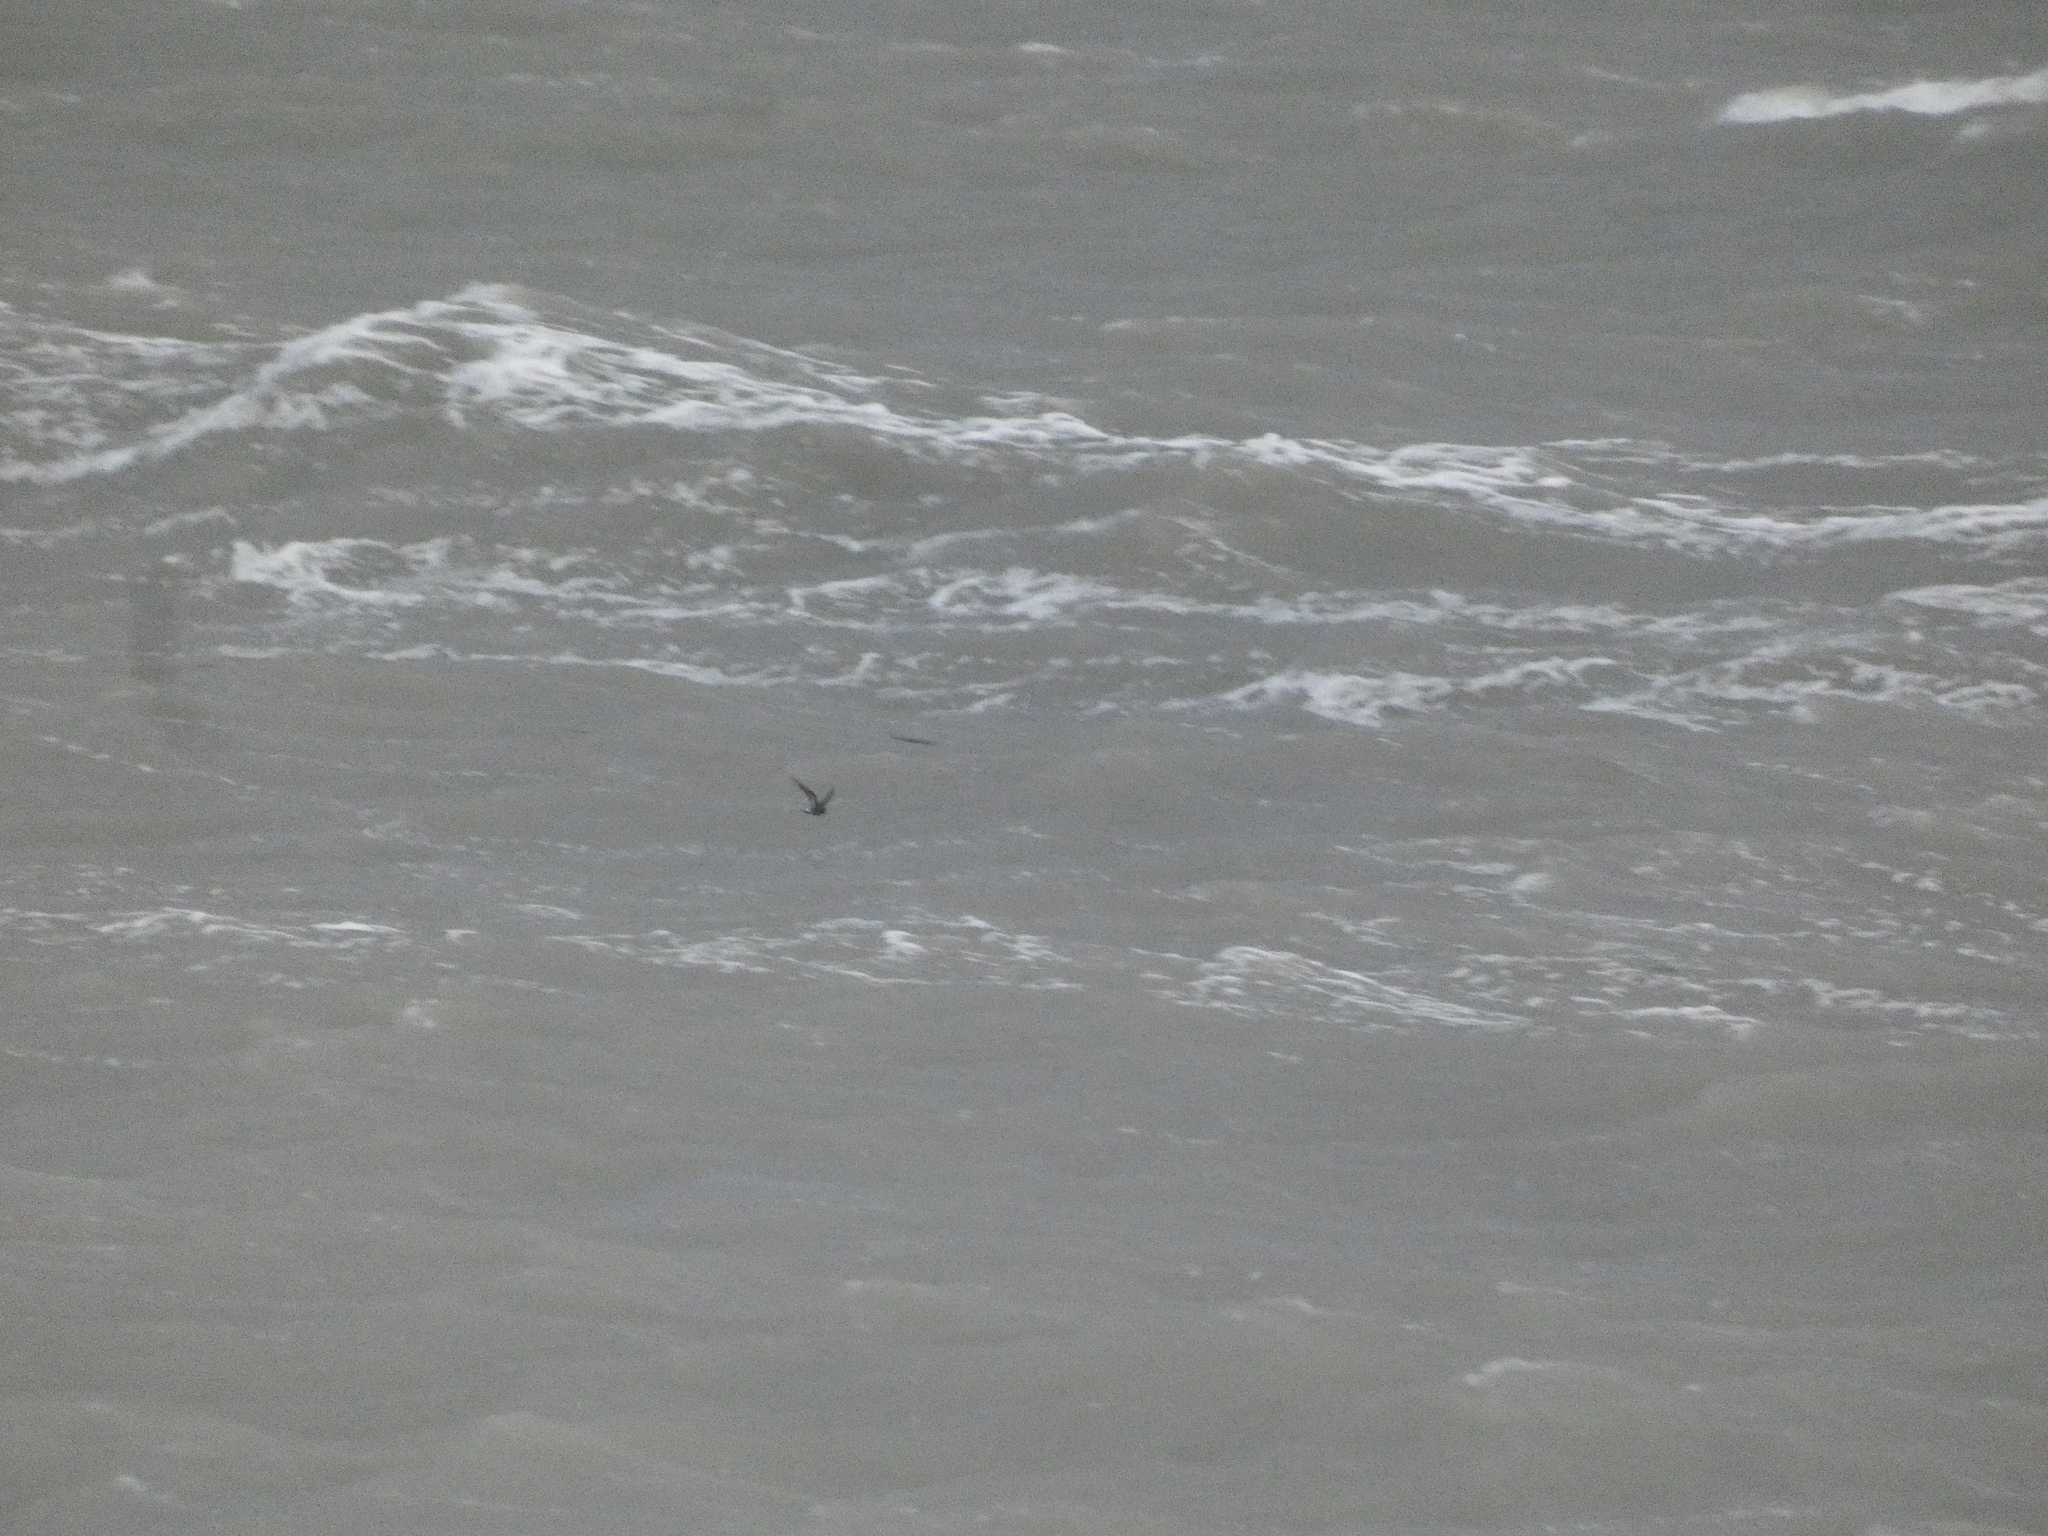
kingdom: Animalia
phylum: Chordata
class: Aves
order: Procellariiformes
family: Hydrobatidae
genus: Hydrobates
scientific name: Hydrobates pelagicus
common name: European storm-petrel
